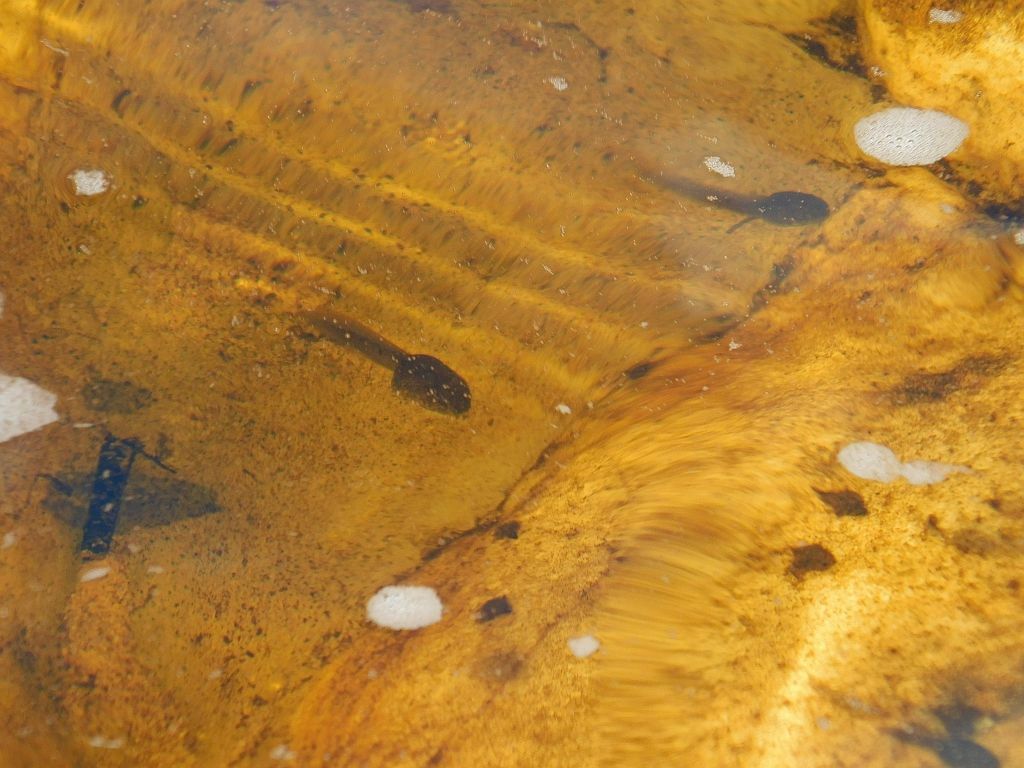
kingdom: Animalia
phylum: Chordata
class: Amphibia
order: Anura
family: Pyxicephalidae
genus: Amietia
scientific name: Amietia fuscigula
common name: Cape rana
